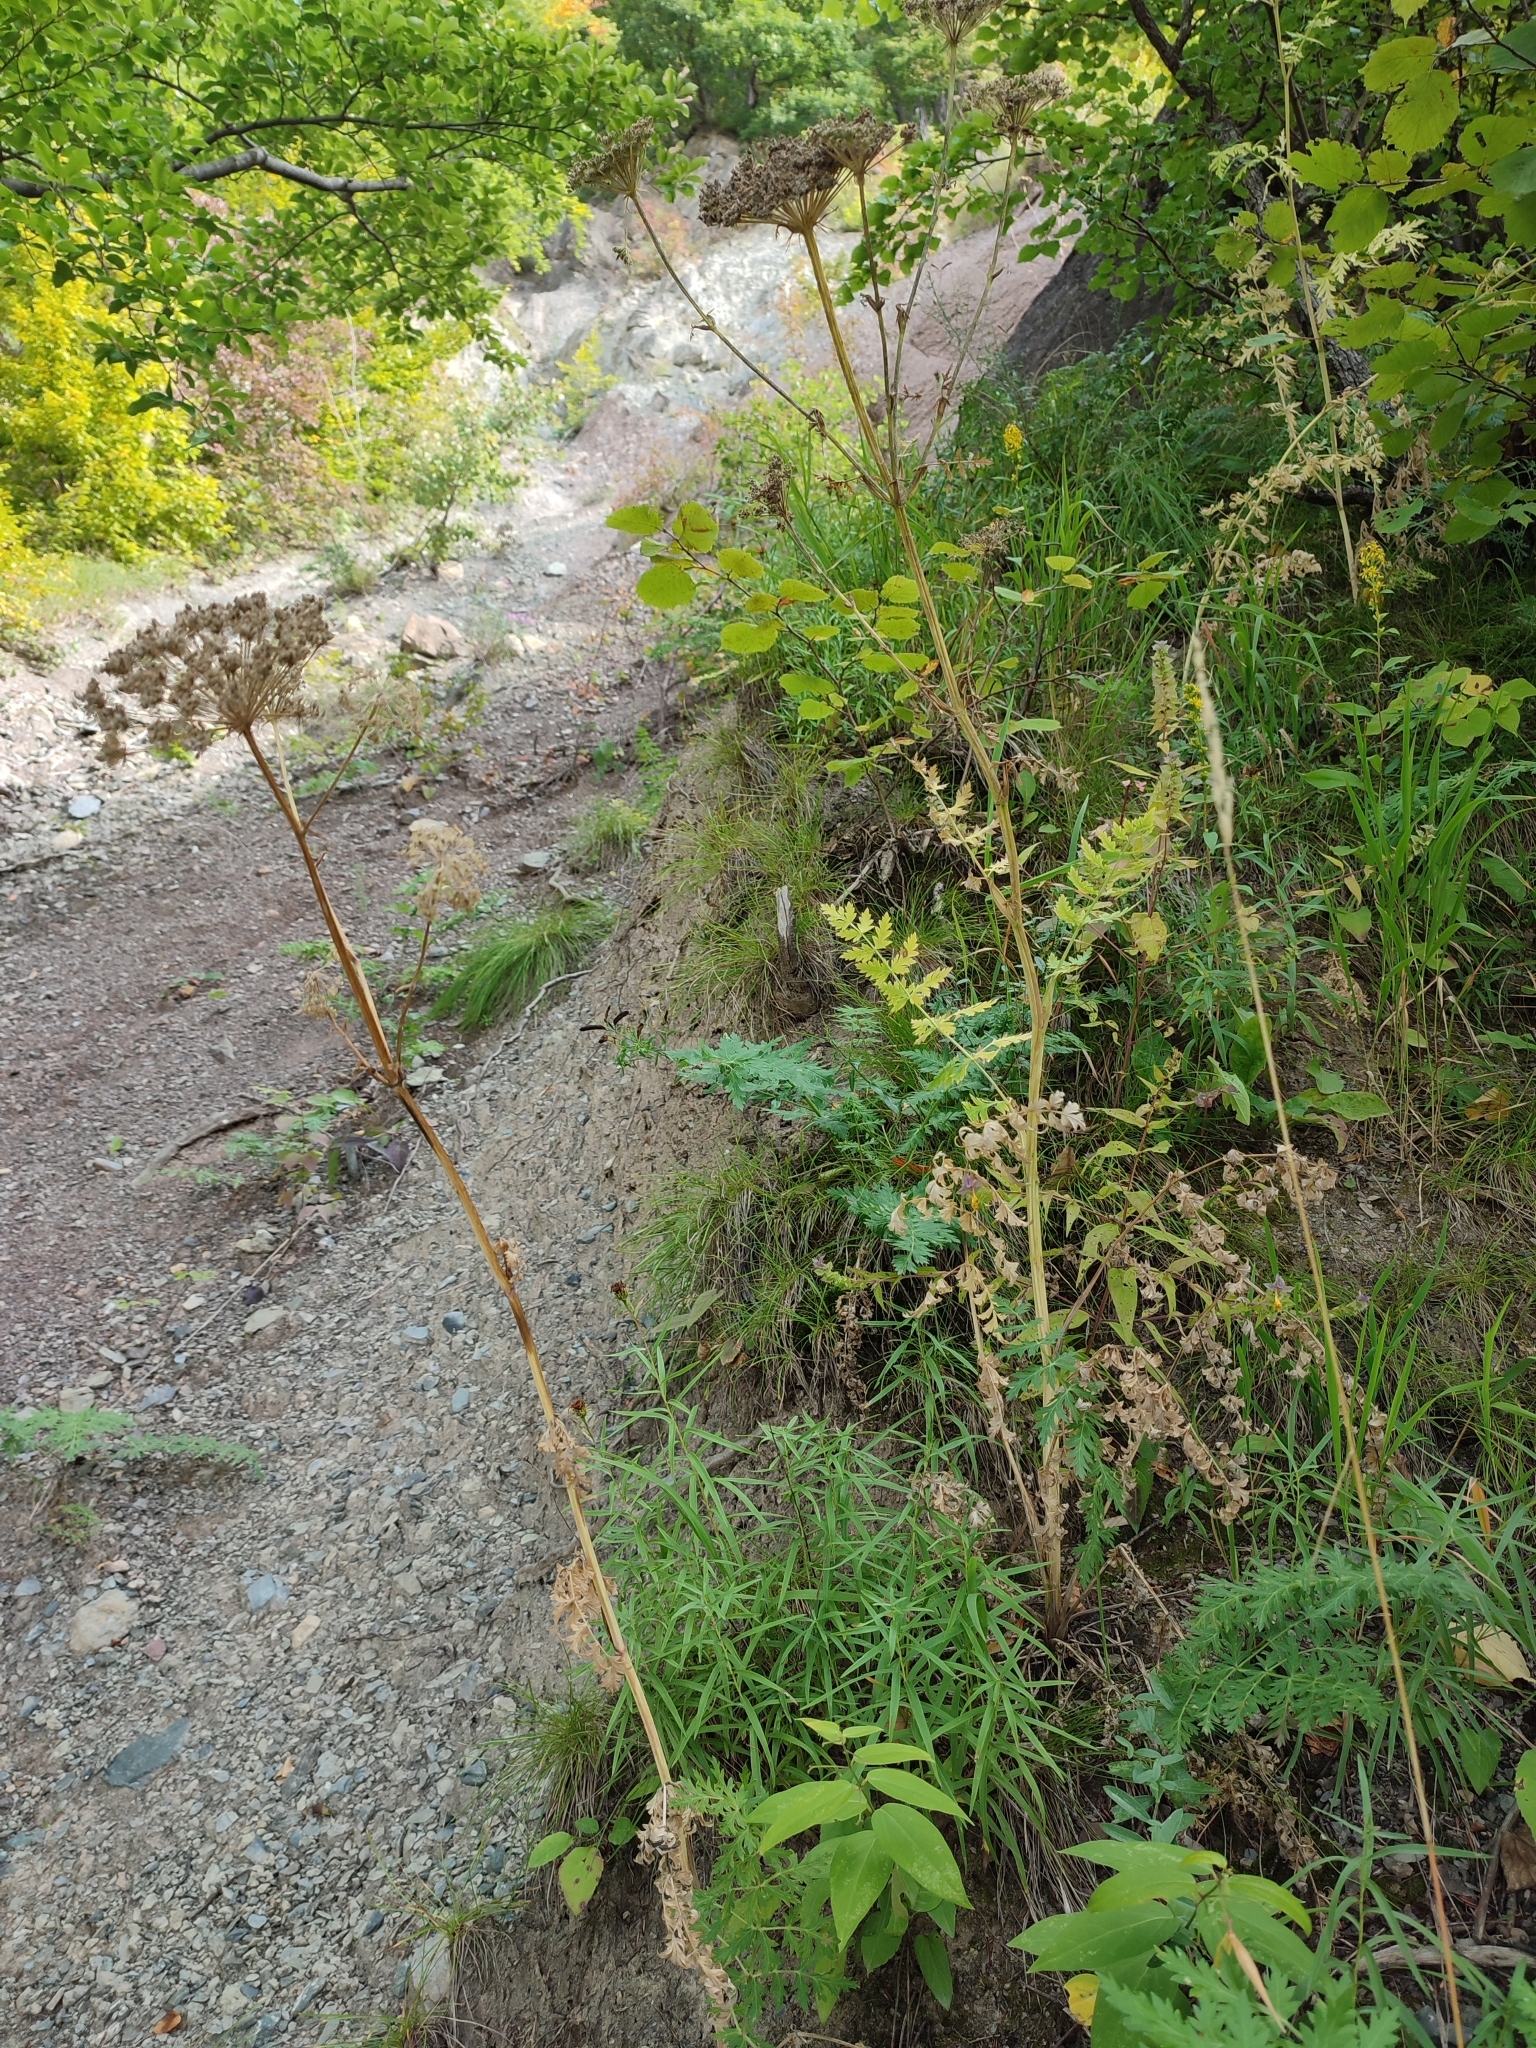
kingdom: Plantae
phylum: Tracheophyta
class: Magnoliopsida
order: Apiales
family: Apiaceae
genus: Seseli
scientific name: Seseli libanotis
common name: Mooncarrot
